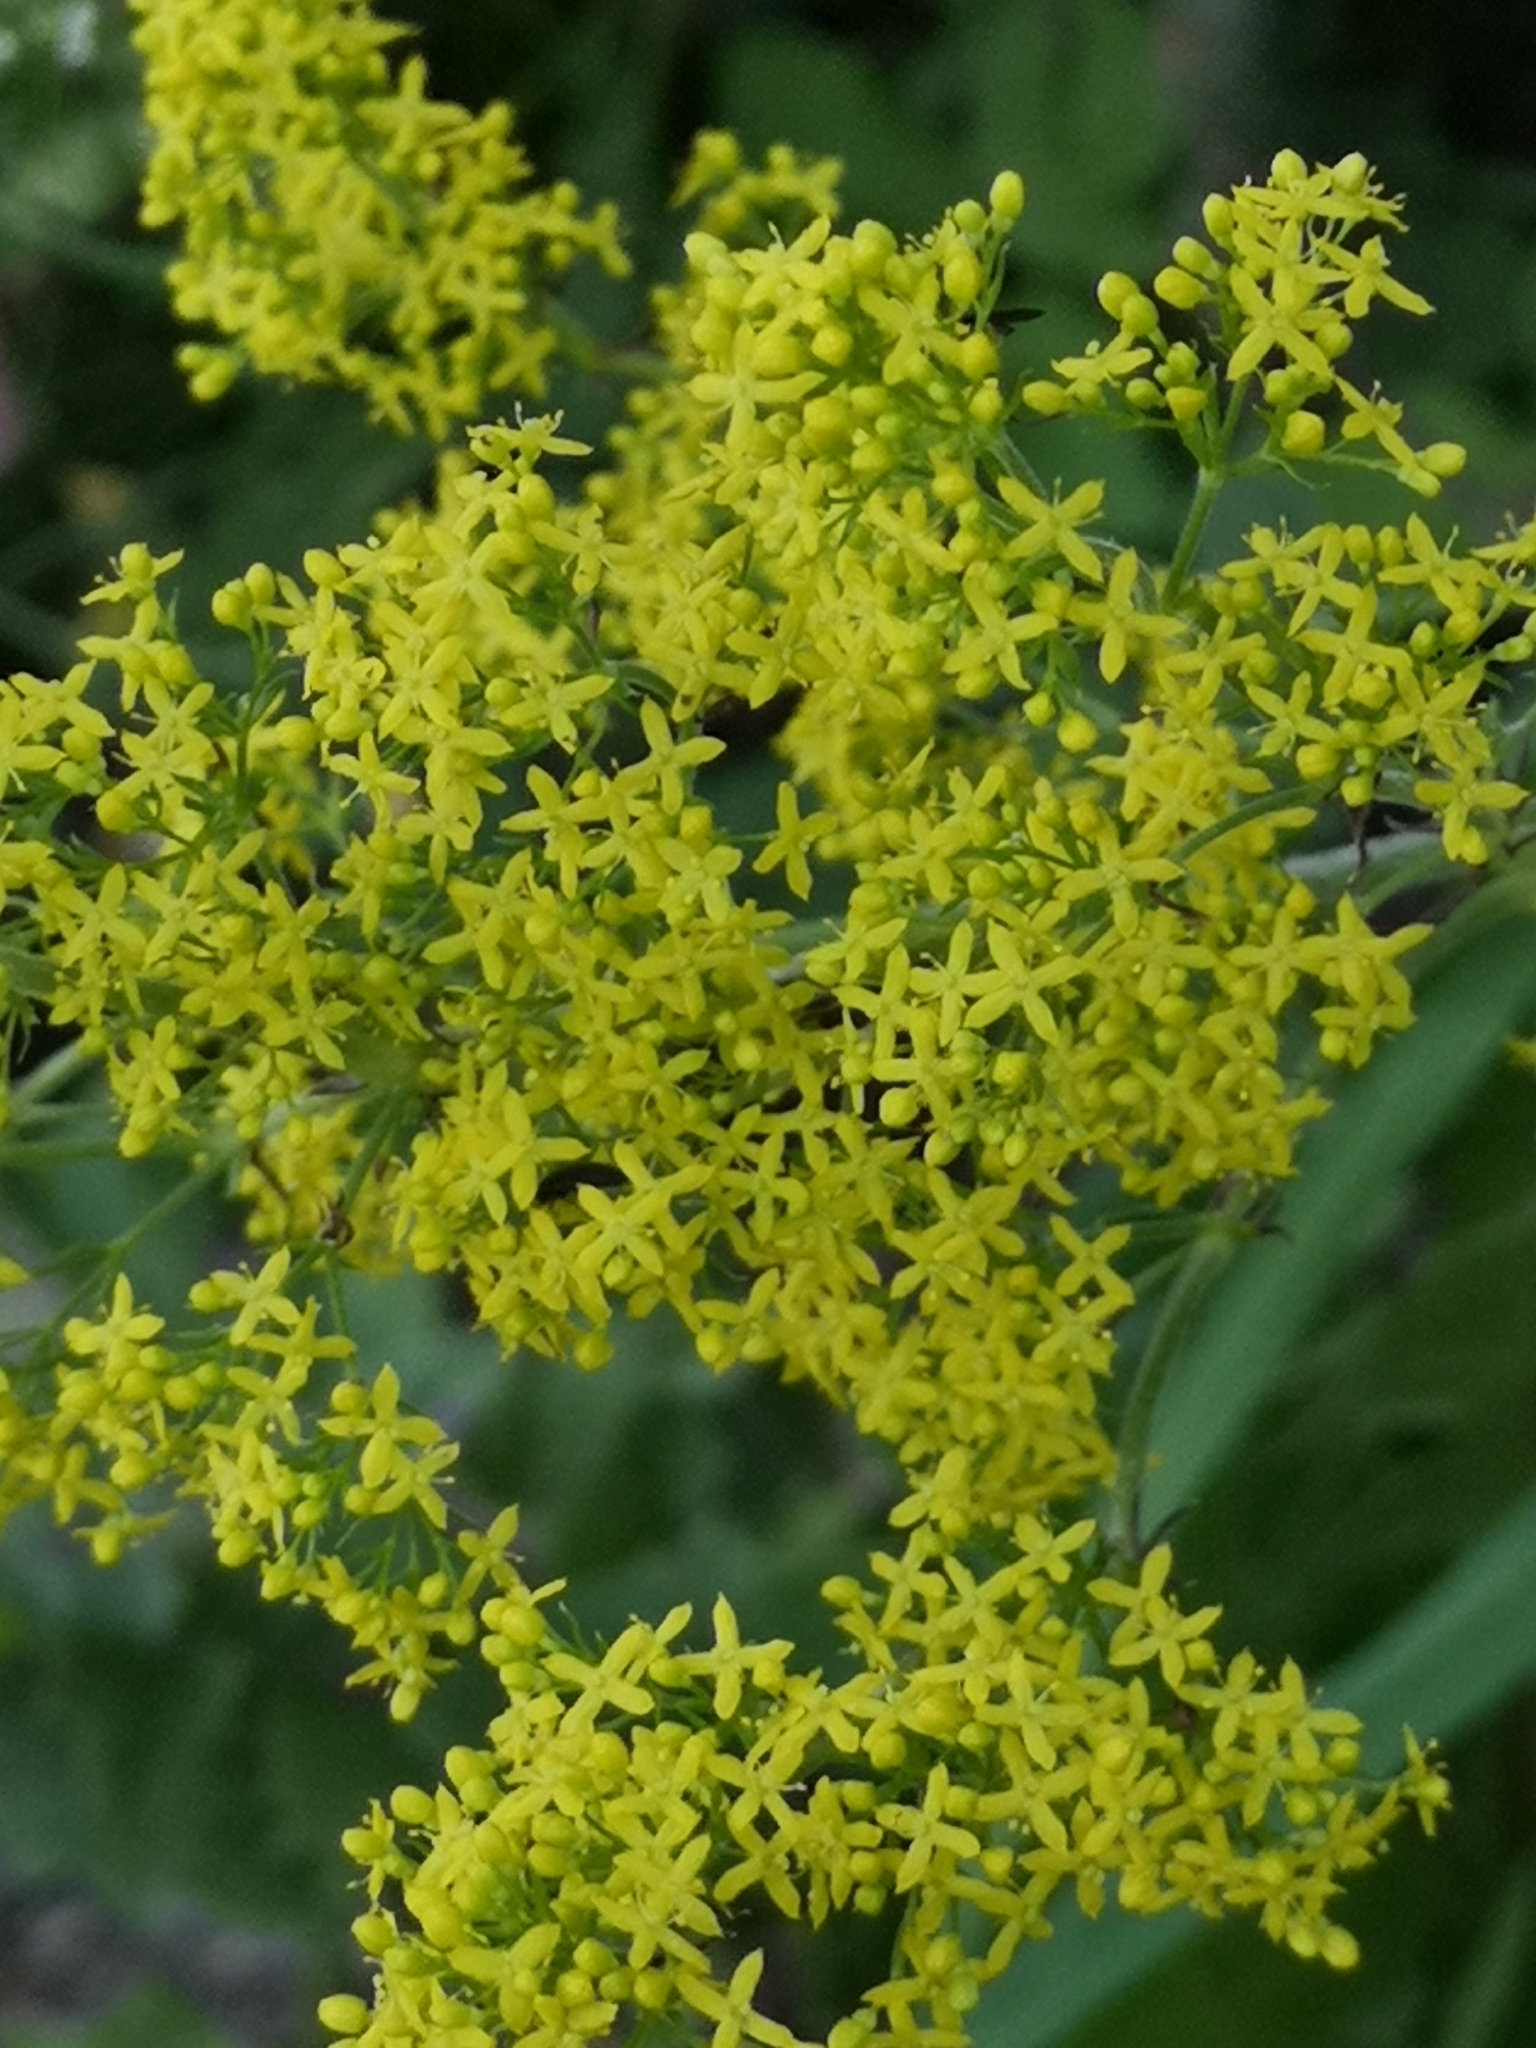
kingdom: Plantae
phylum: Tracheophyta
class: Magnoliopsida
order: Gentianales
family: Rubiaceae
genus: Galium
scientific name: Galium verum
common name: Lady's bedstraw
